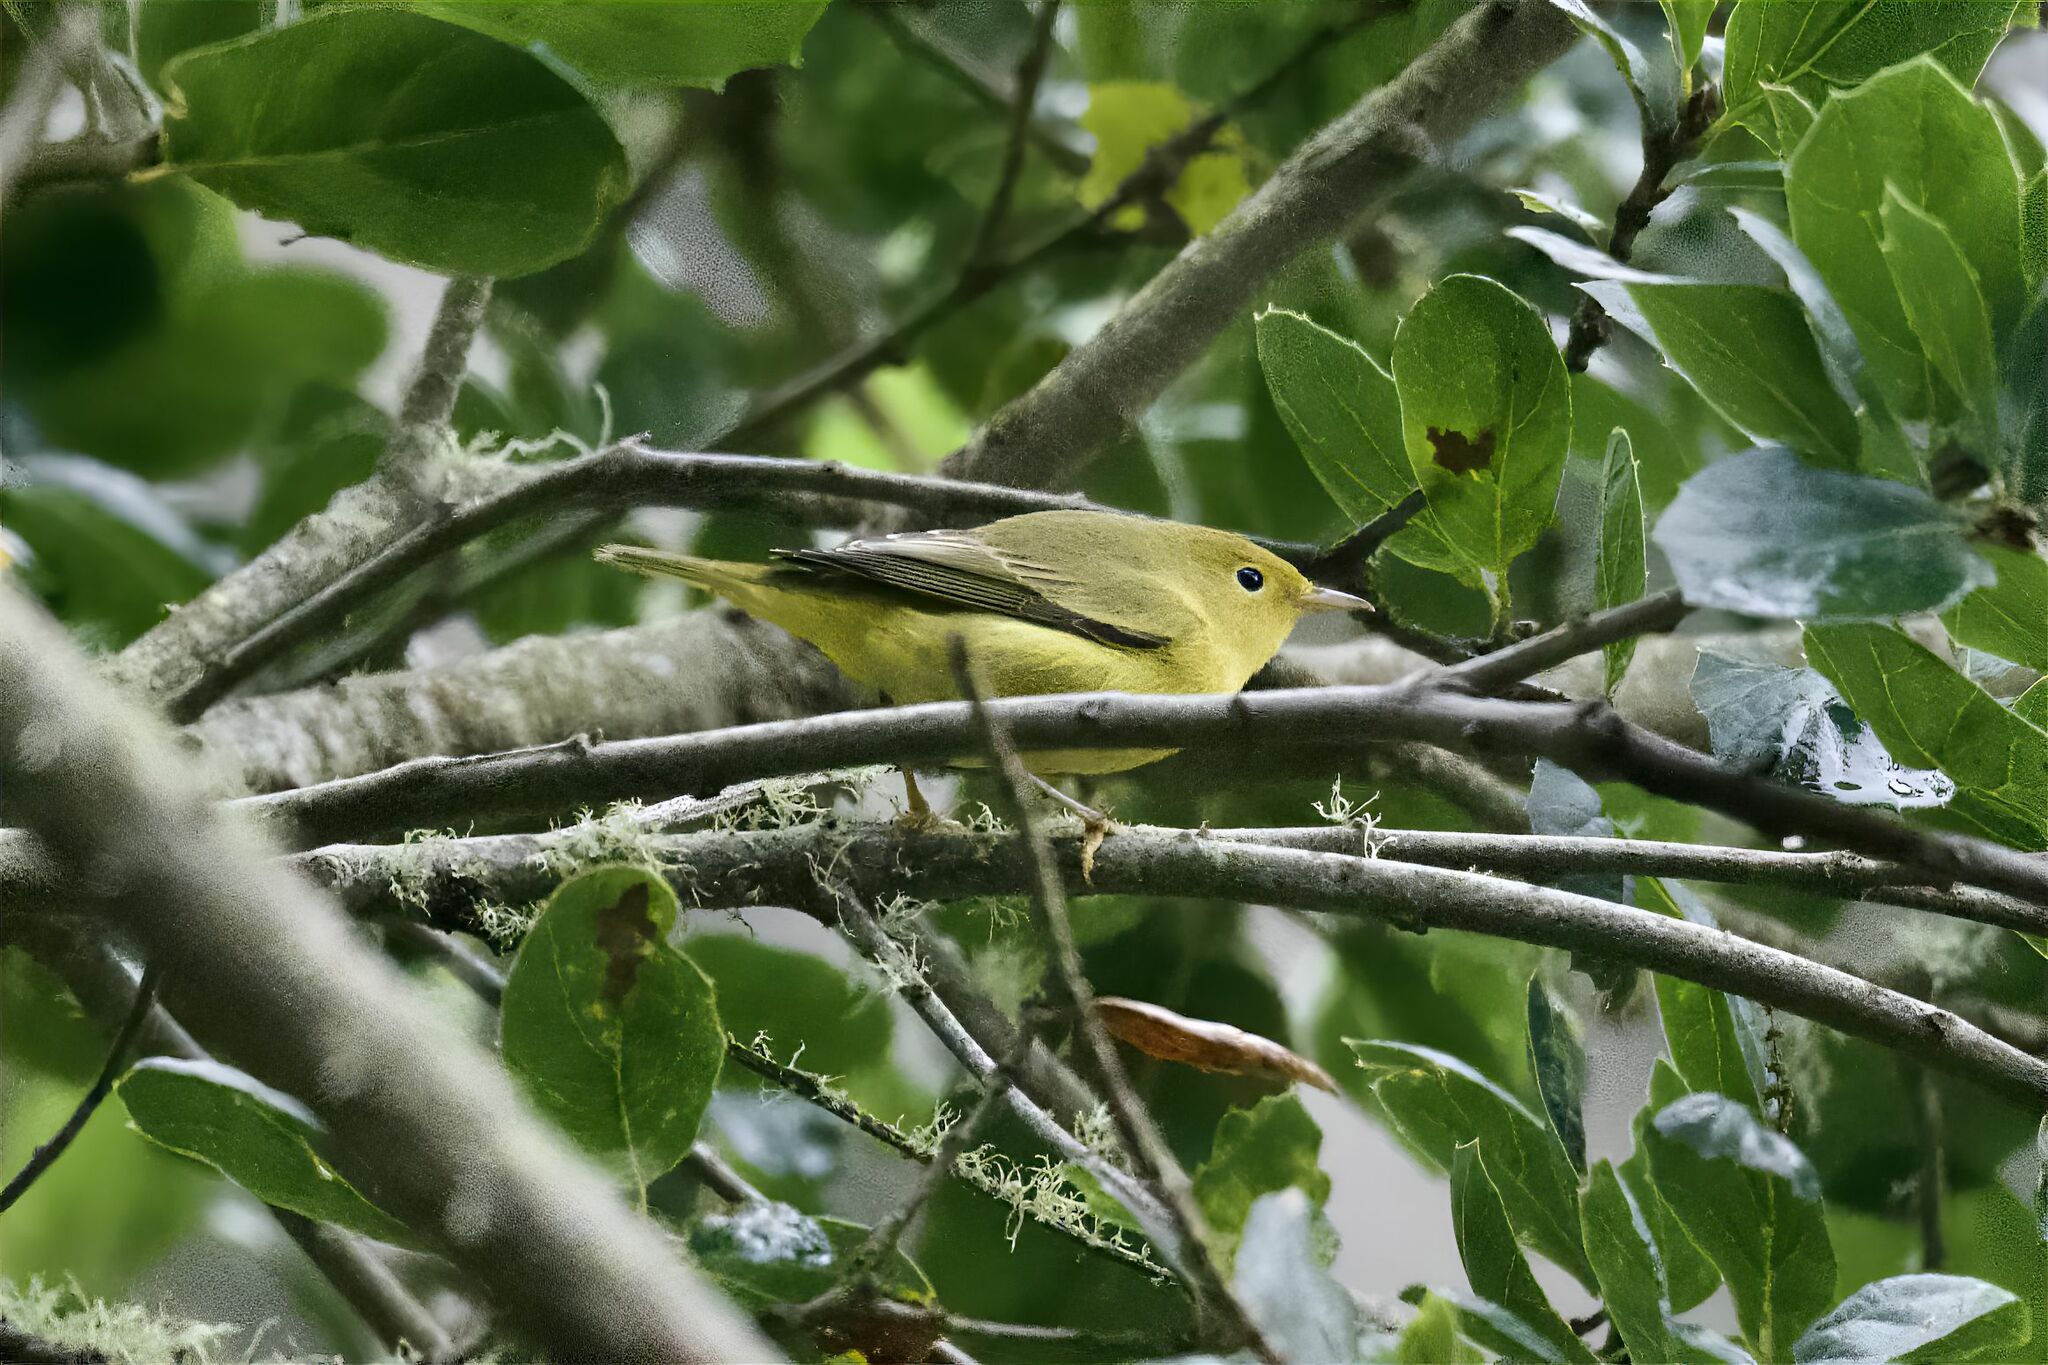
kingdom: Animalia
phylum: Chordata
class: Aves
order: Passeriformes
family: Parulidae
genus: Setophaga
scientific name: Setophaga petechia
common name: Yellow warbler
